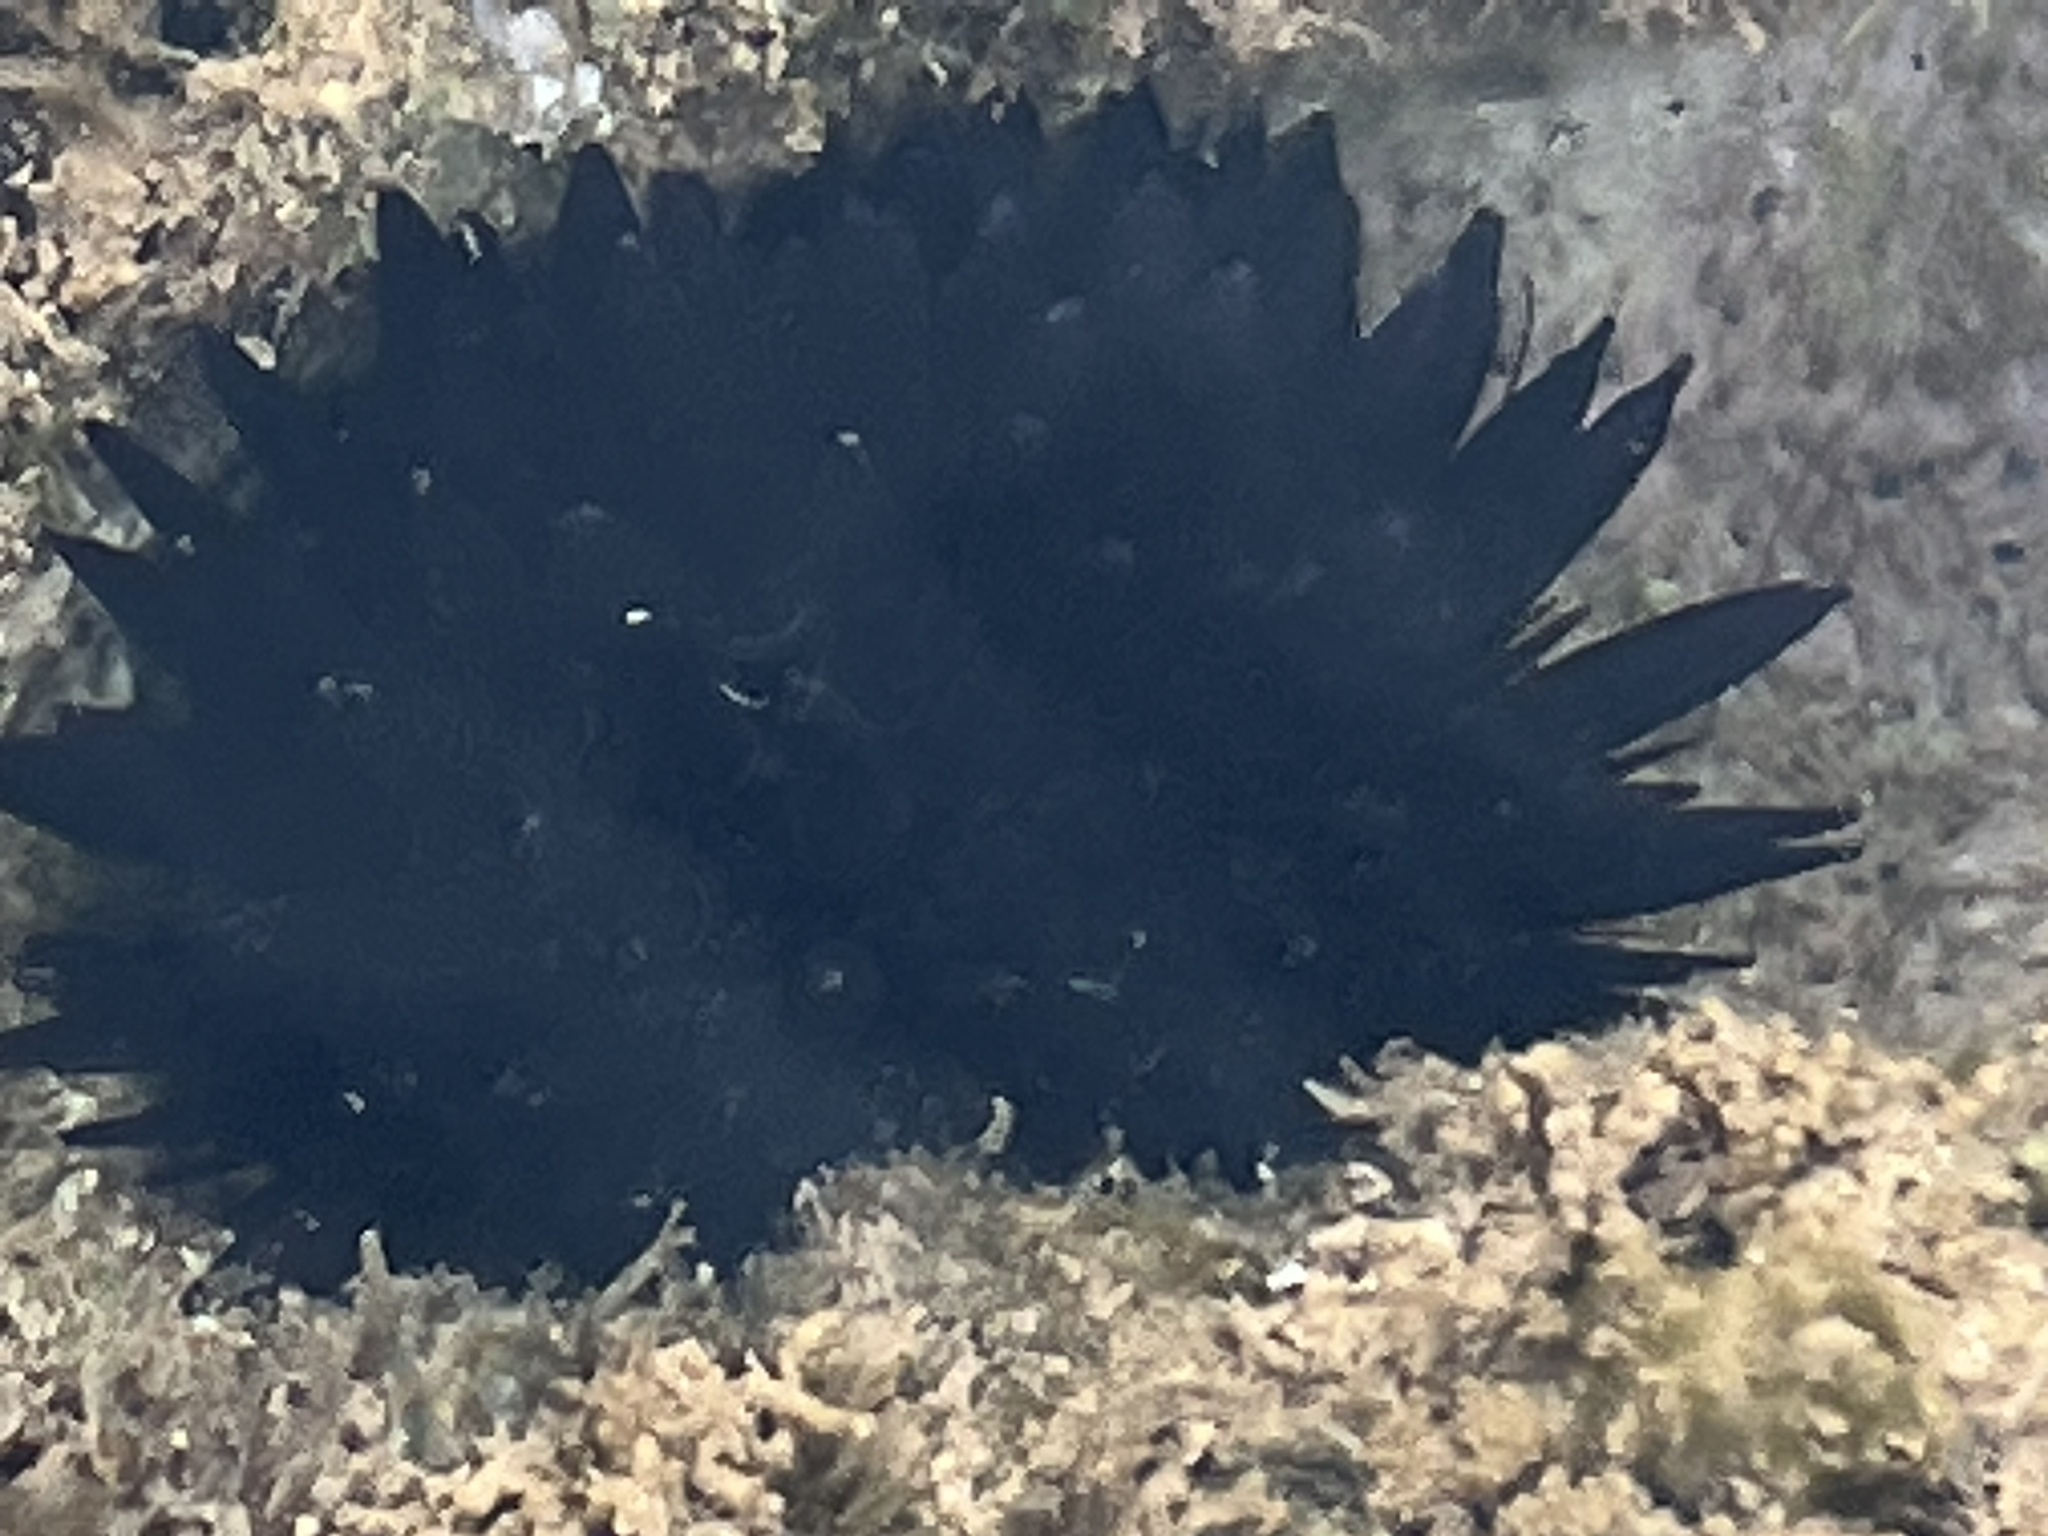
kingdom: Animalia
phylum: Echinodermata
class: Echinoidea
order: Camarodonta
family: Echinometridae
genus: Echinometra
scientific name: Echinometra oblonga
